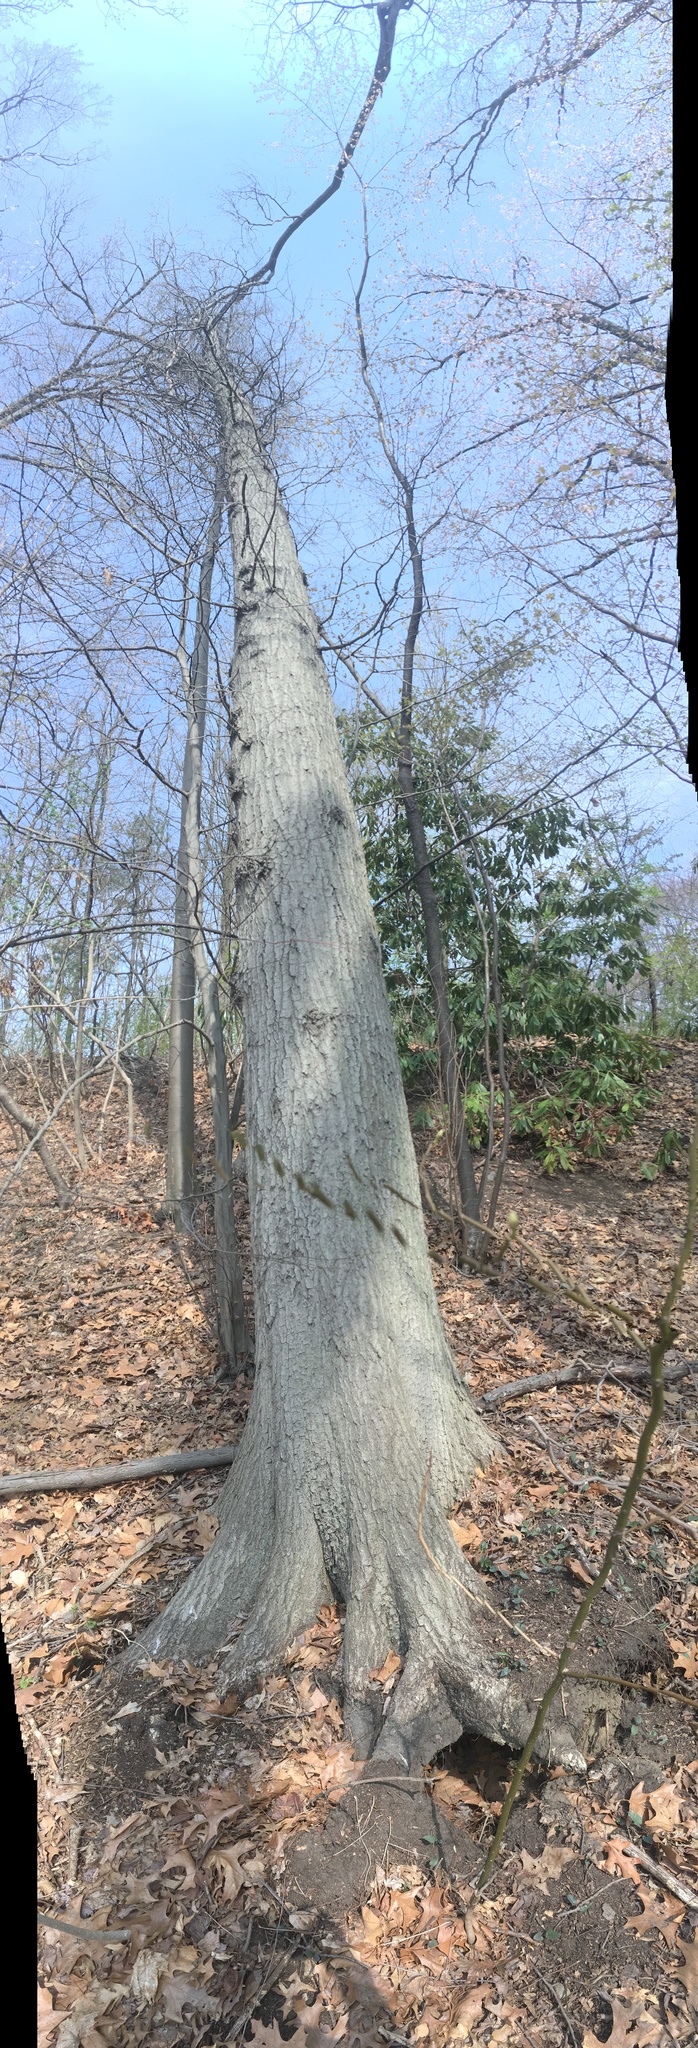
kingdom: Plantae
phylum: Tracheophyta
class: Magnoliopsida
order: Fagales
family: Fagaceae
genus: Quercus
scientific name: Quercus rubra
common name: Red oak
